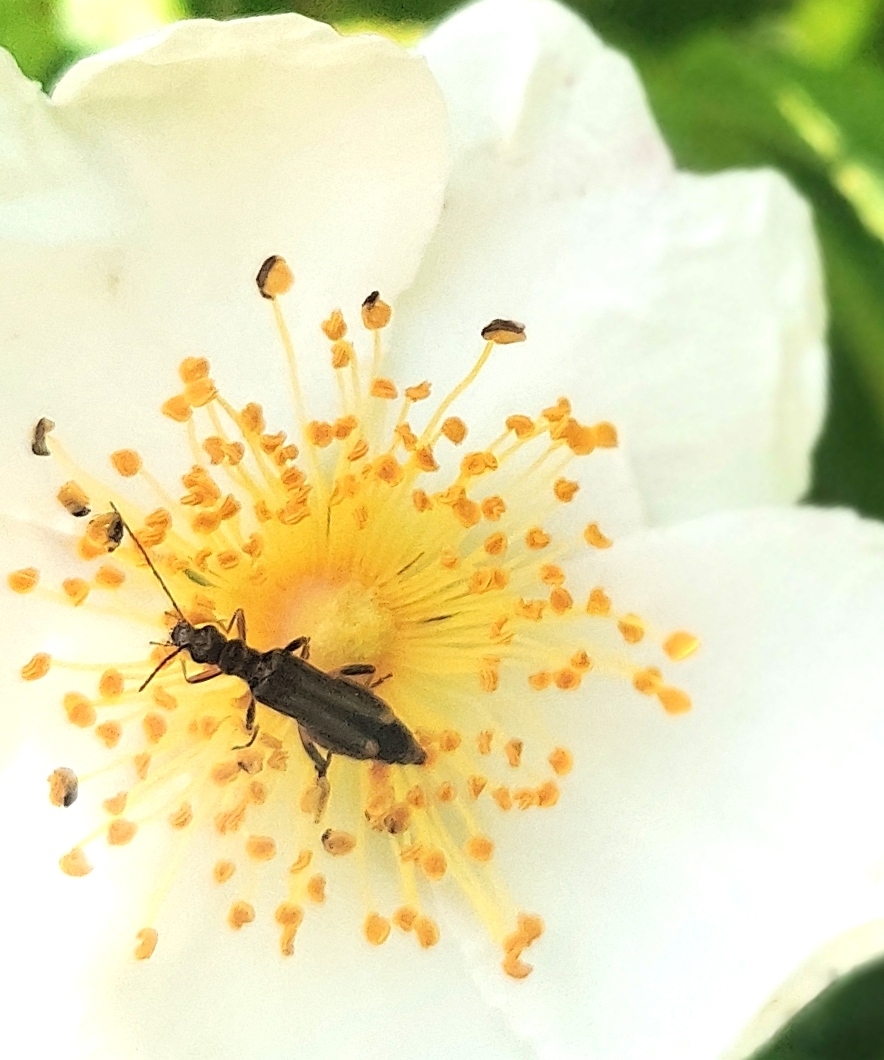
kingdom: Animalia
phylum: Arthropoda
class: Insecta
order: Coleoptera
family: Oedemeridae
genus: Oedemera
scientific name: Oedemera barbara
